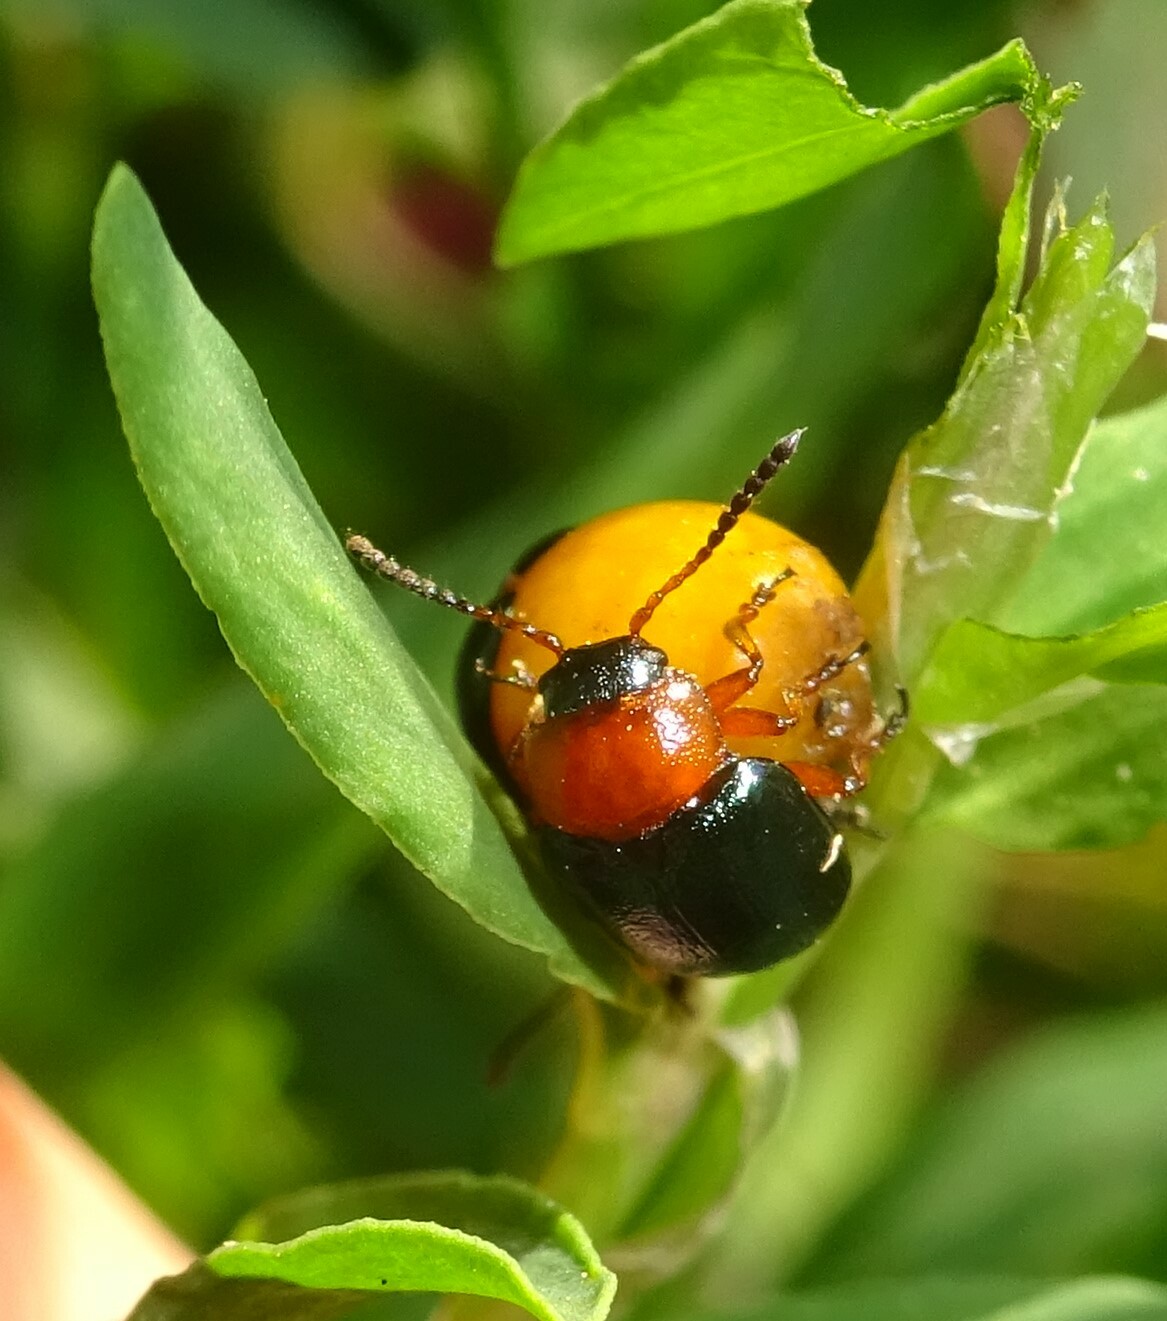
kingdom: Animalia
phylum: Arthropoda
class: Insecta
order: Coleoptera
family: Chrysomelidae
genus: Gastrophysa
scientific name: Gastrophysa polygoni
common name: Knotweed leaf beetle
